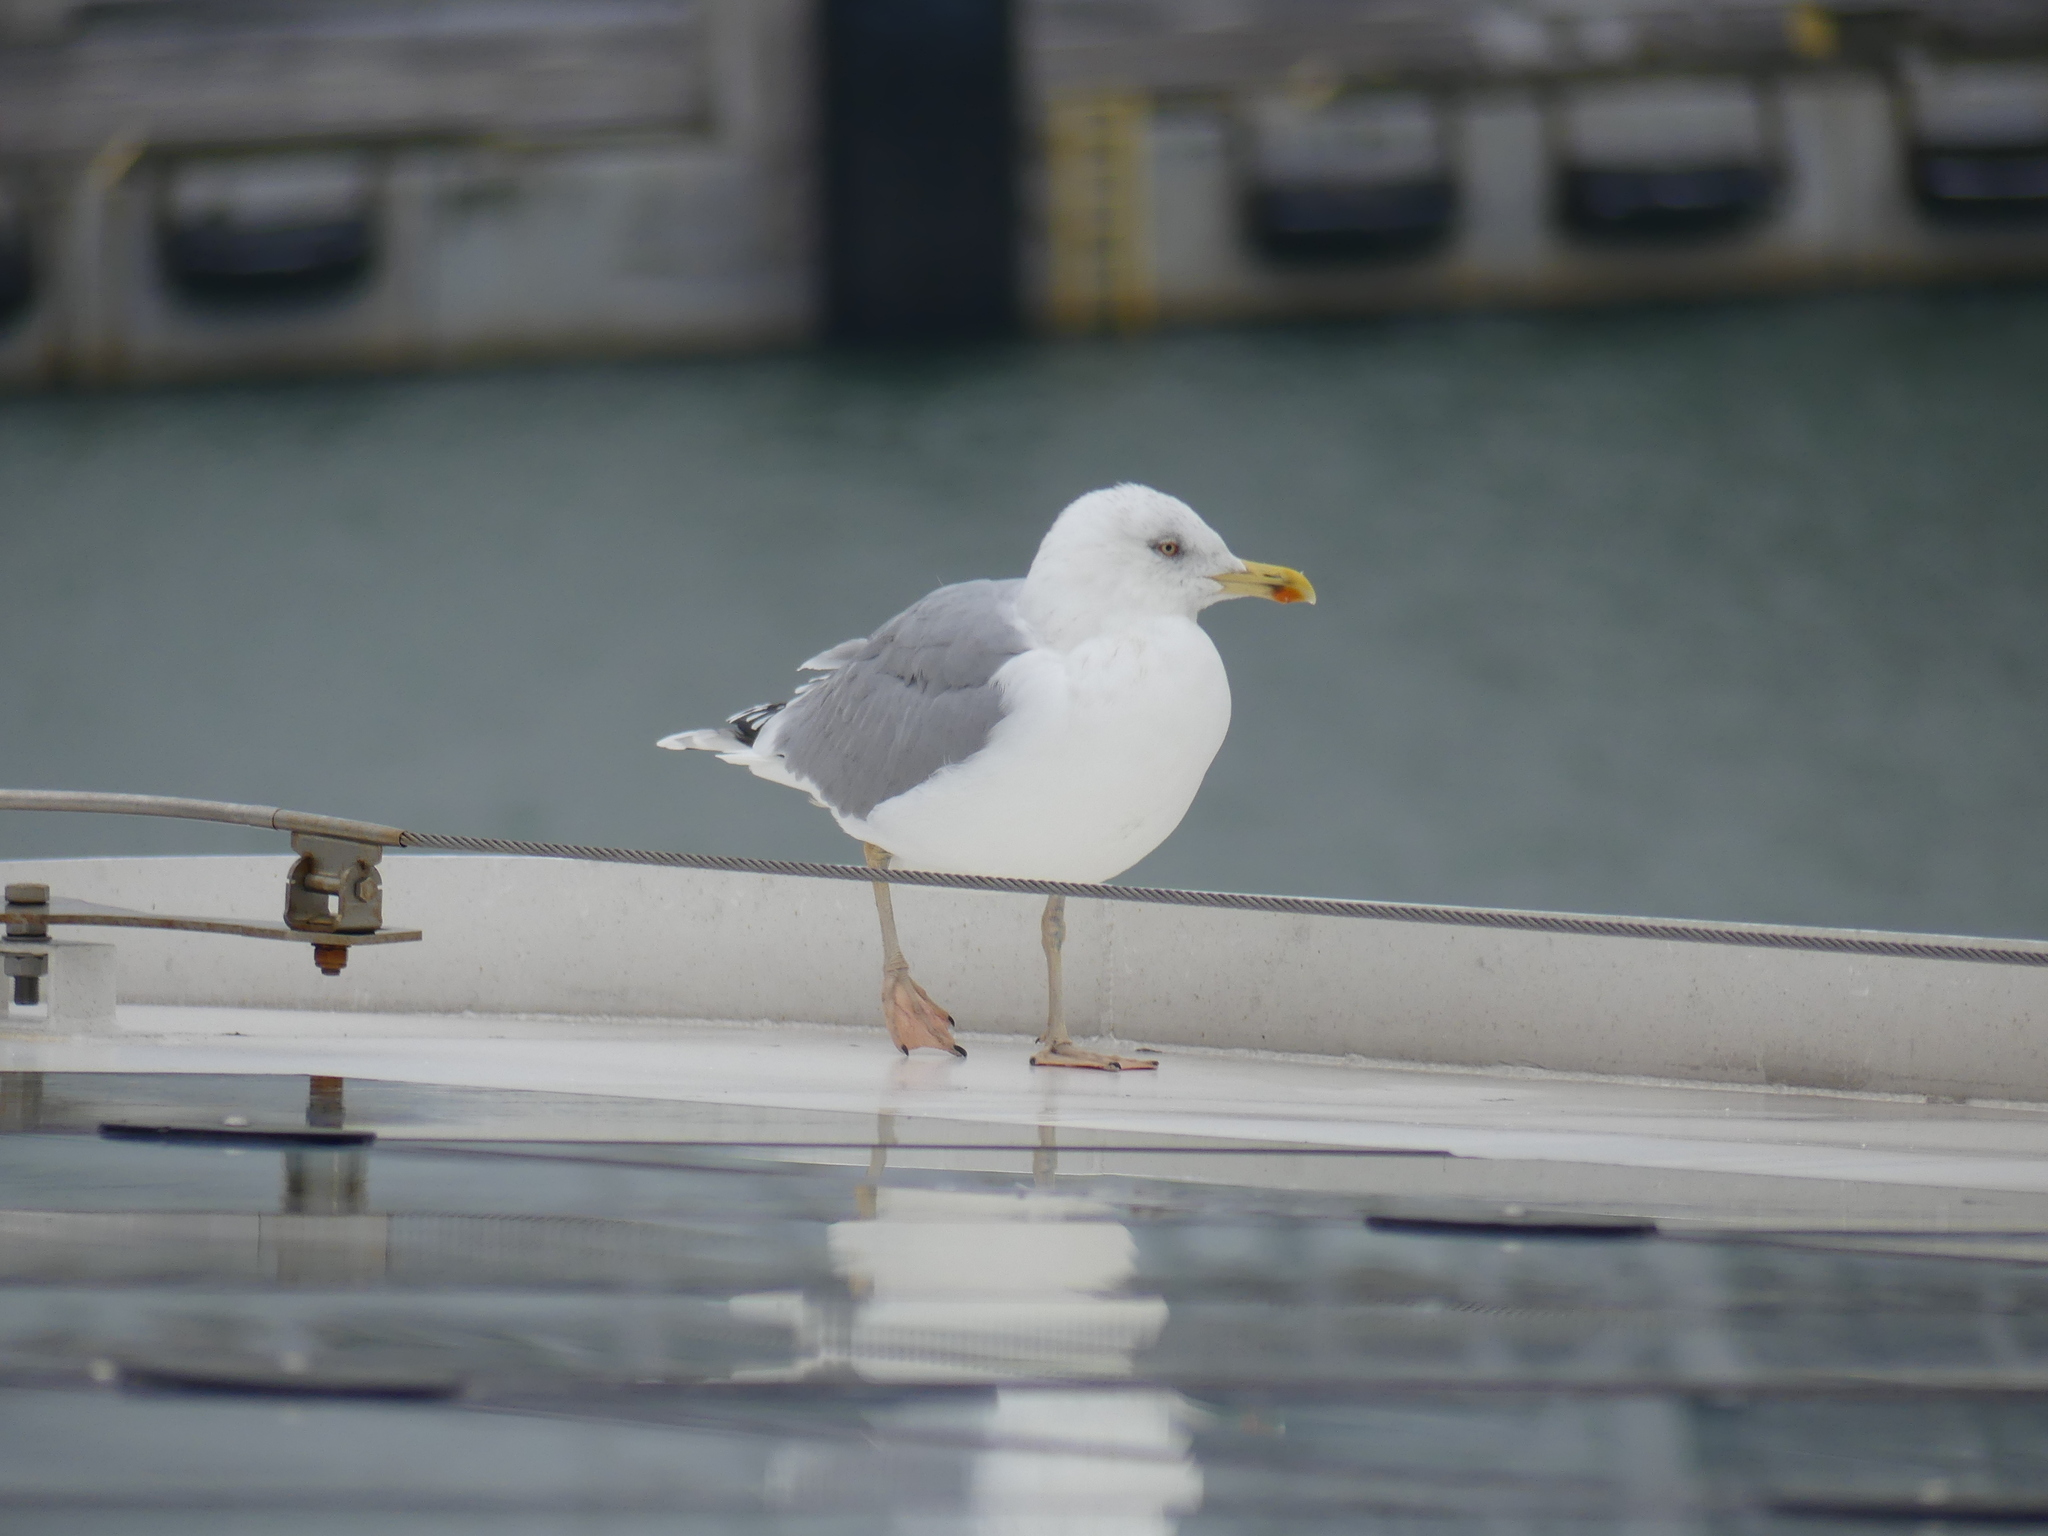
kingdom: Animalia
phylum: Chordata
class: Aves
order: Charadriiformes
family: Laridae
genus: Larus
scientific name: Larus argentatus
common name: Herring gull
